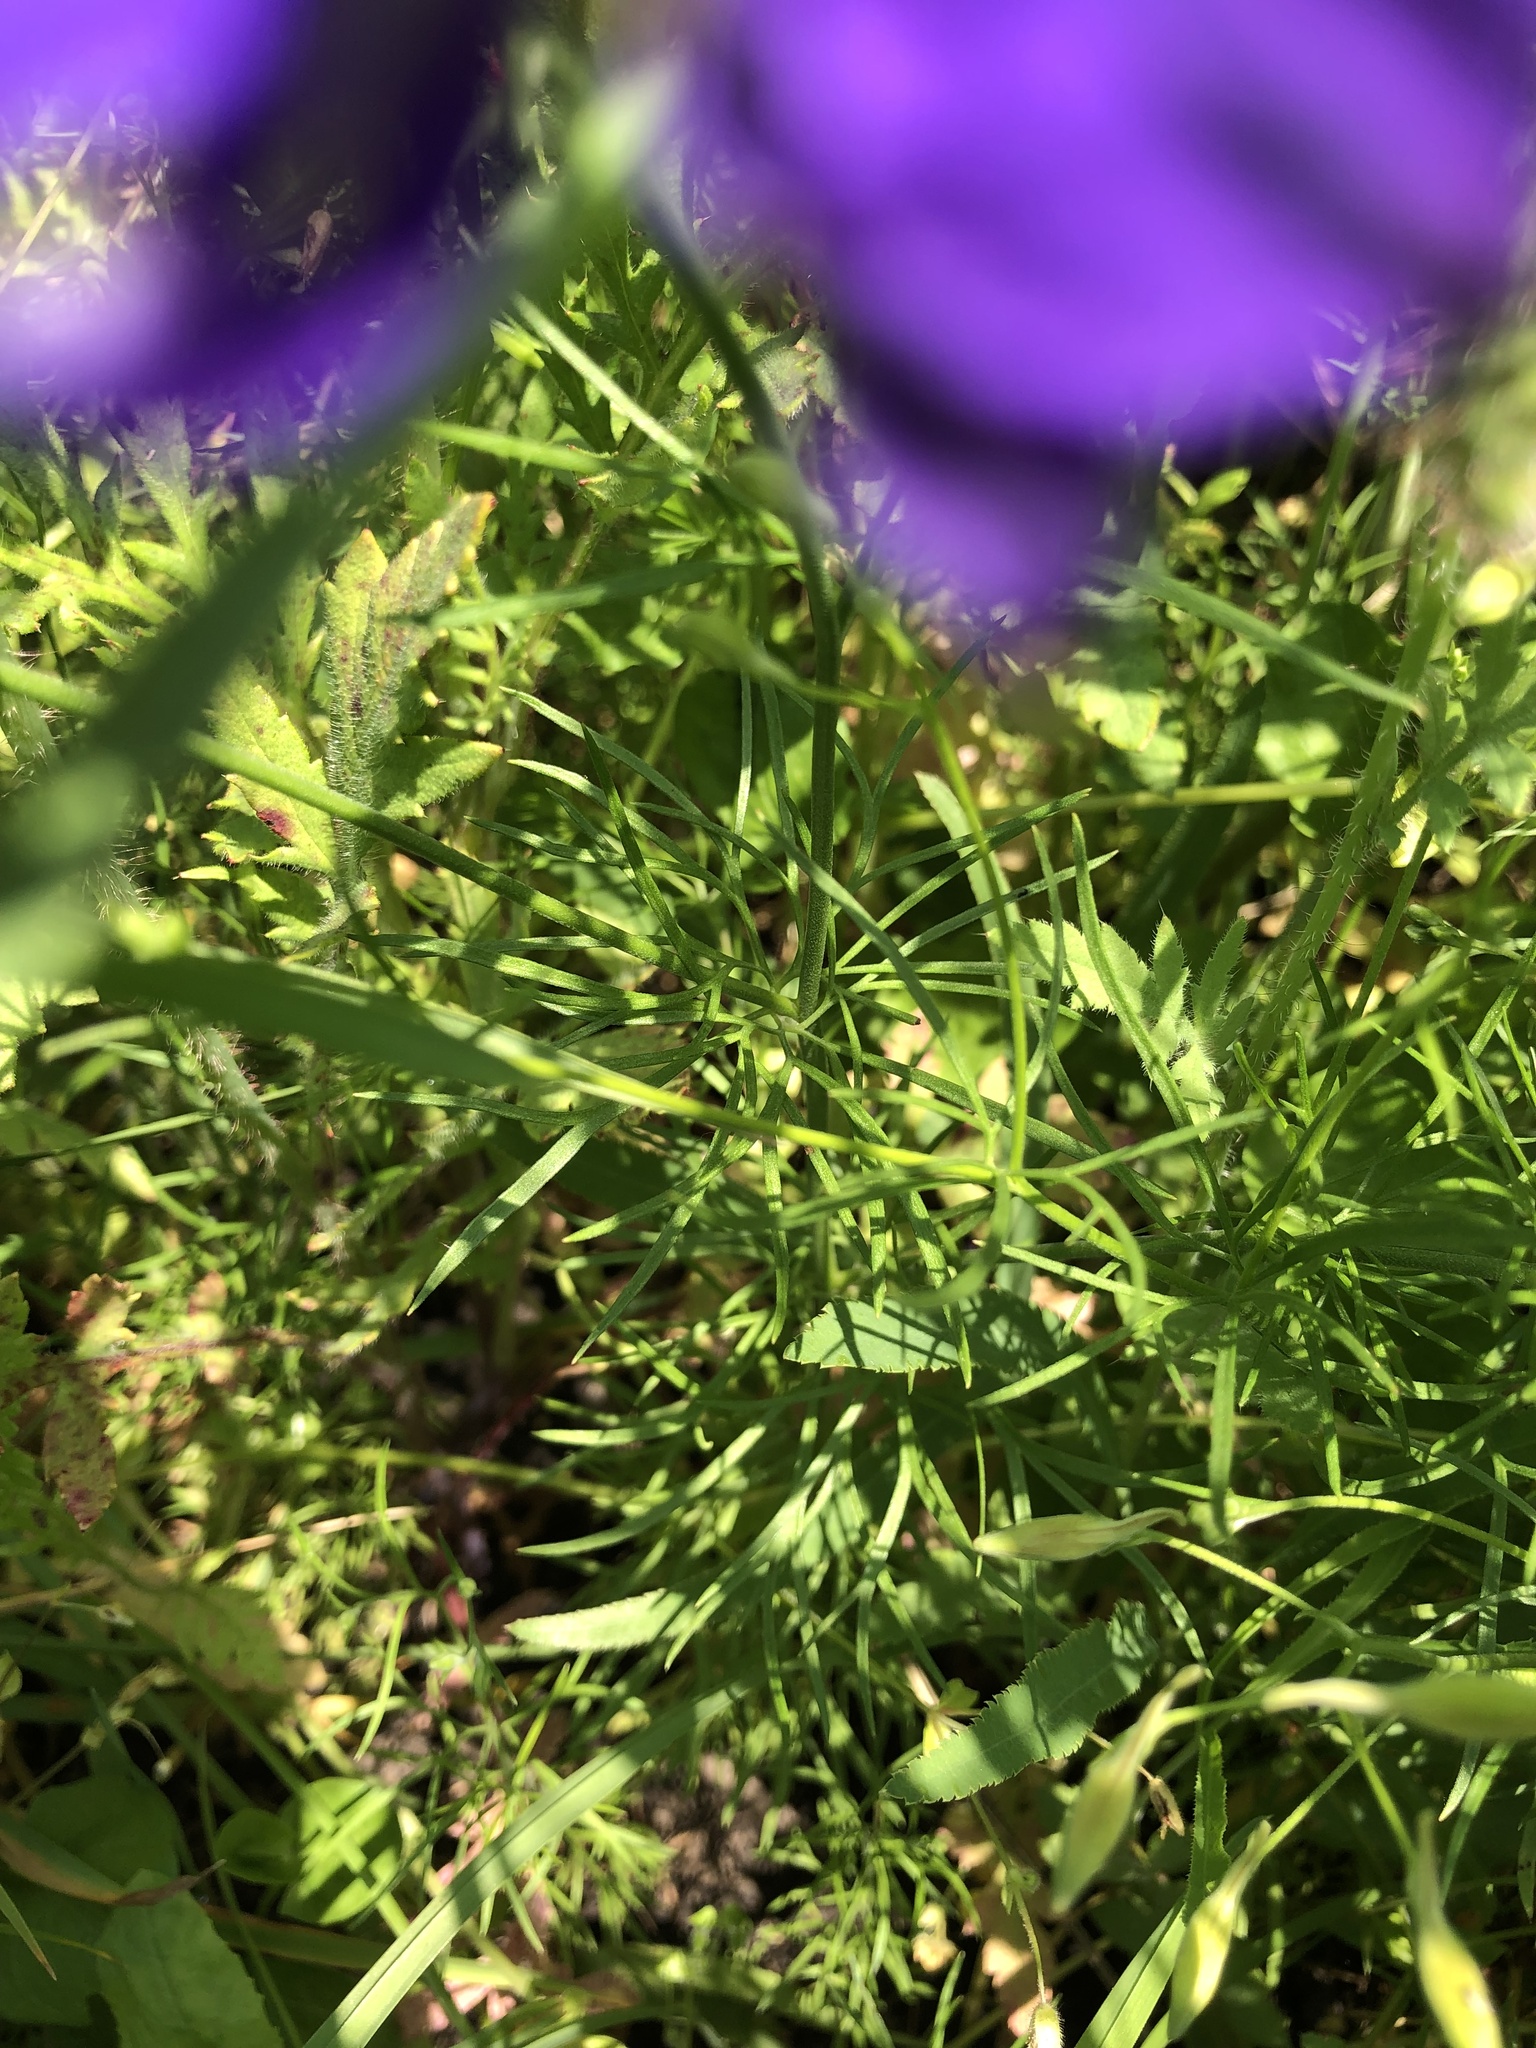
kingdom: Plantae
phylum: Tracheophyta
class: Magnoliopsida
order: Ranunculales
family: Ranunculaceae
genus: Delphinium
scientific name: Delphinium consolida
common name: Branching larkspur
